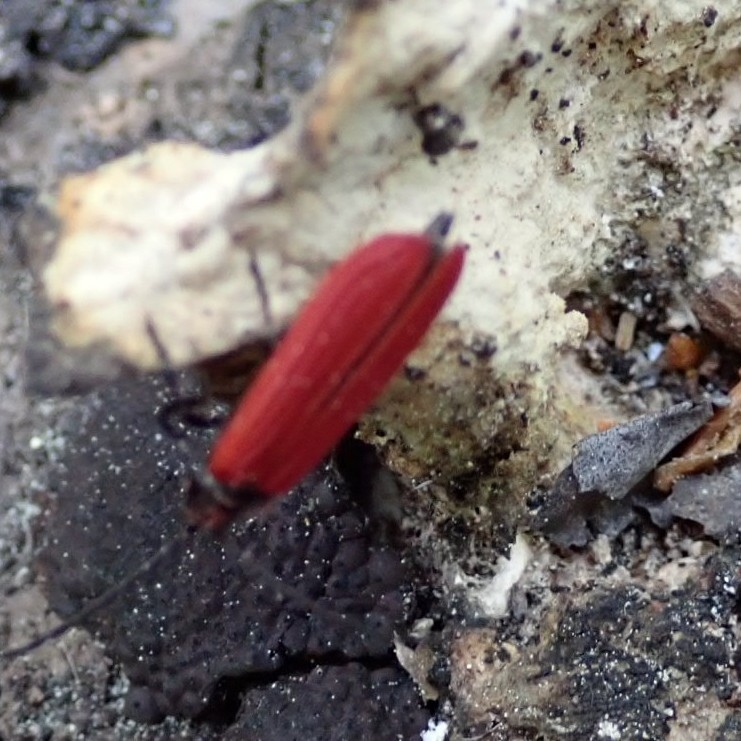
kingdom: Animalia
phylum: Arthropoda
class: Insecta
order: Coleoptera
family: Lycidae
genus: Xylobanellus
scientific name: Xylobanellus erythropterus
